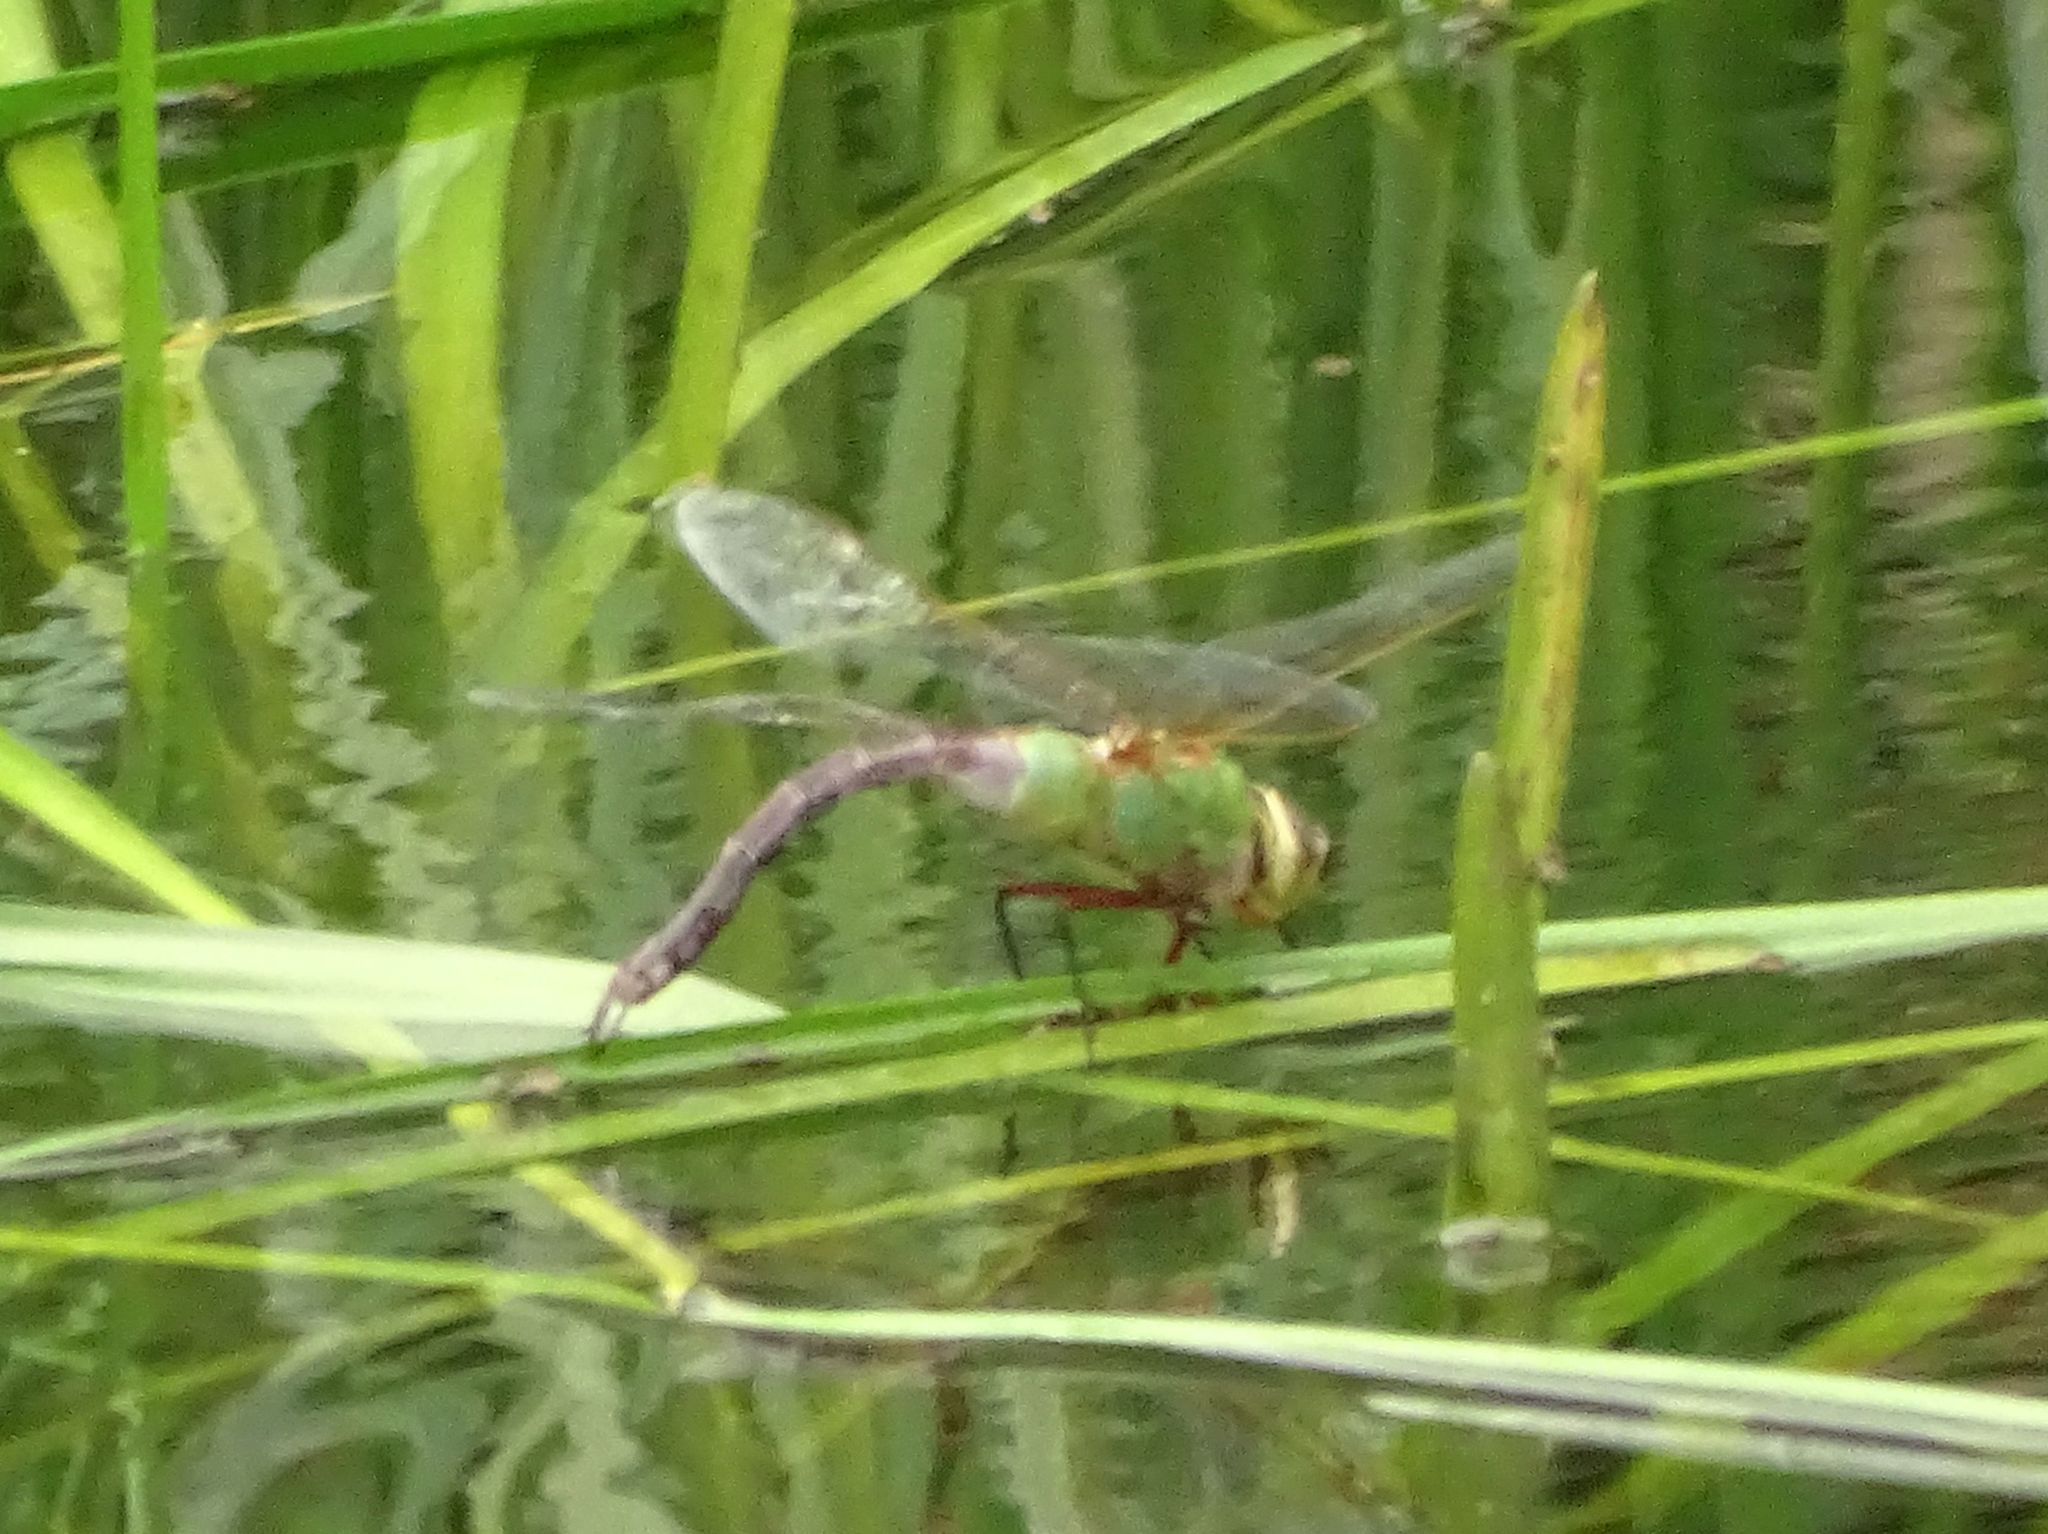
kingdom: Animalia
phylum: Arthropoda
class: Insecta
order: Odonata
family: Aeshnidae
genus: Anax
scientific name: Anax junius
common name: Common green darner
